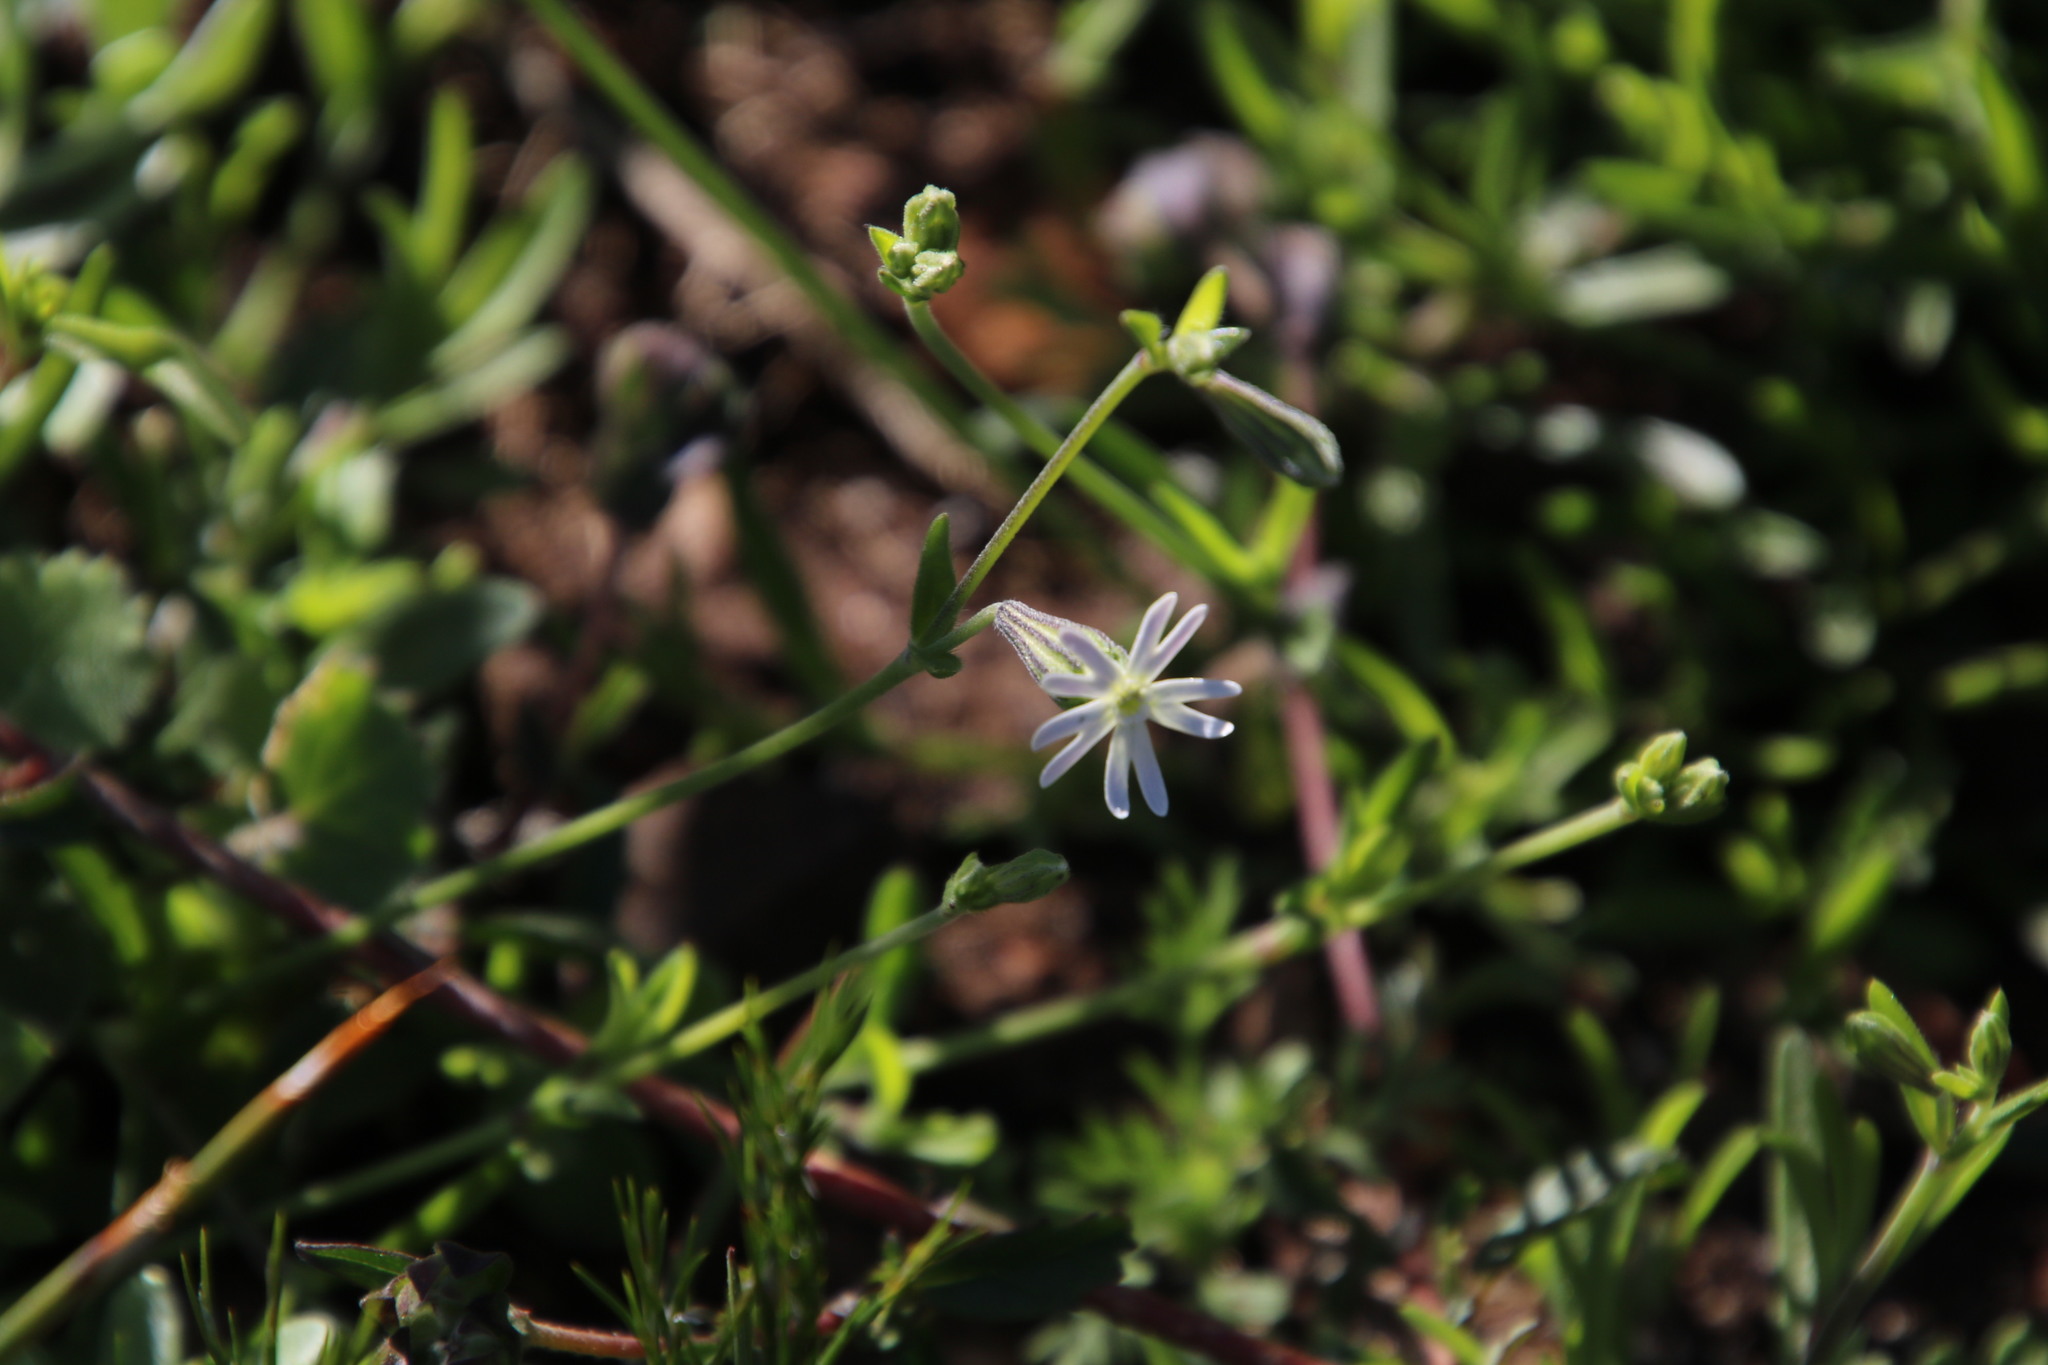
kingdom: Plantae
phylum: Tracheophyta
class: Magnoliopsida
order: Caryophyllales
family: Caryophyllaceae
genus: Silene
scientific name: Silene aethiopica
